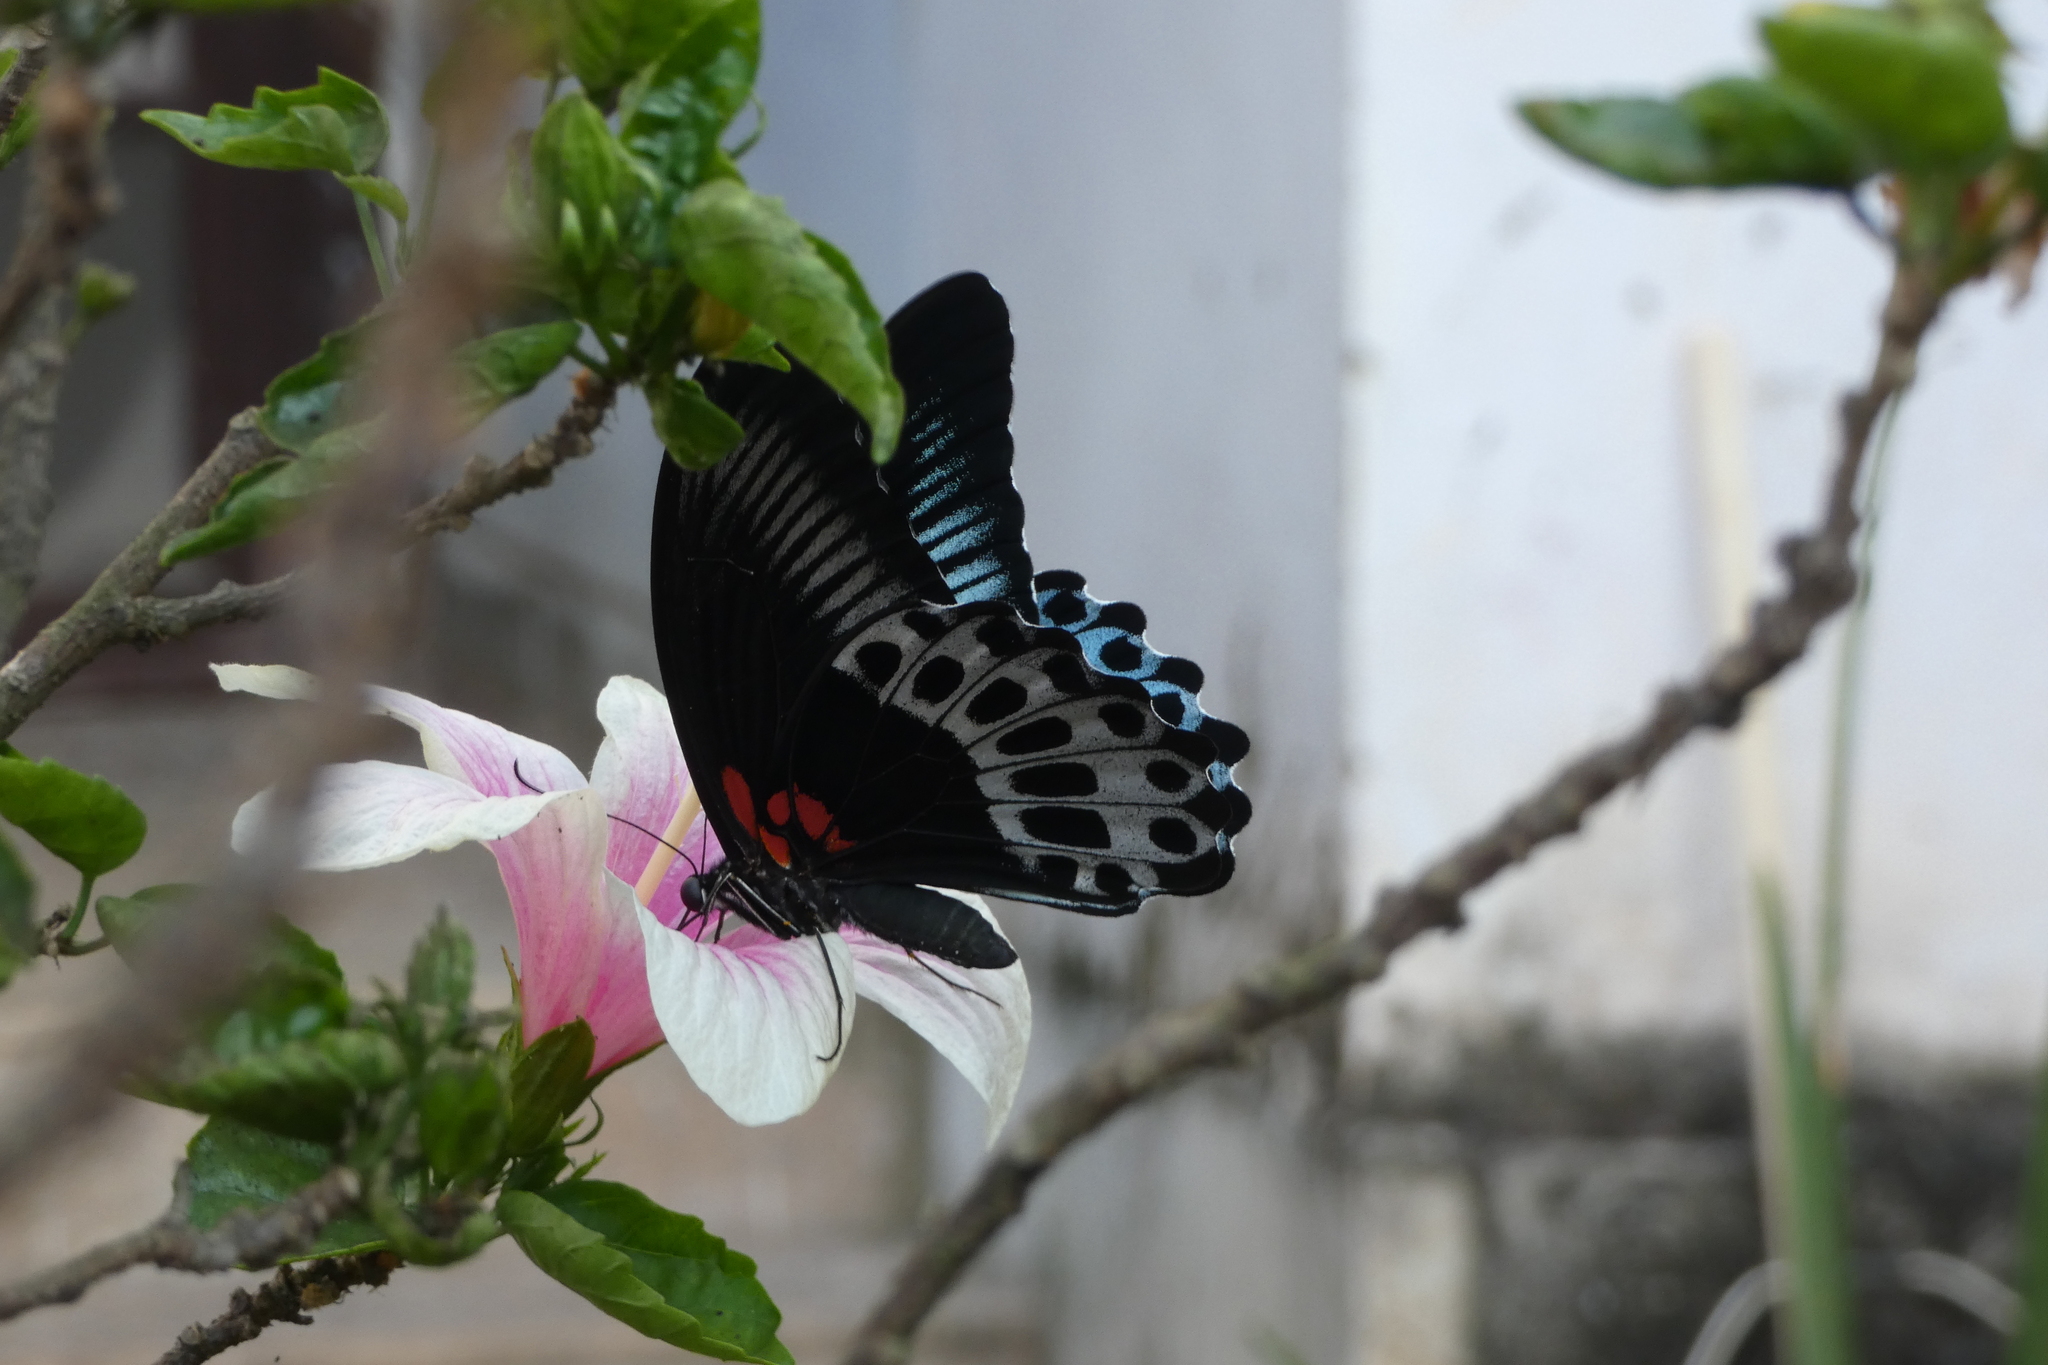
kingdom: Animalia
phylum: Arthropoda
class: Insecta
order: Lepidoptera
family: Papilionidae
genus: Papilio
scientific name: Papilio memnon
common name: Great mormon
